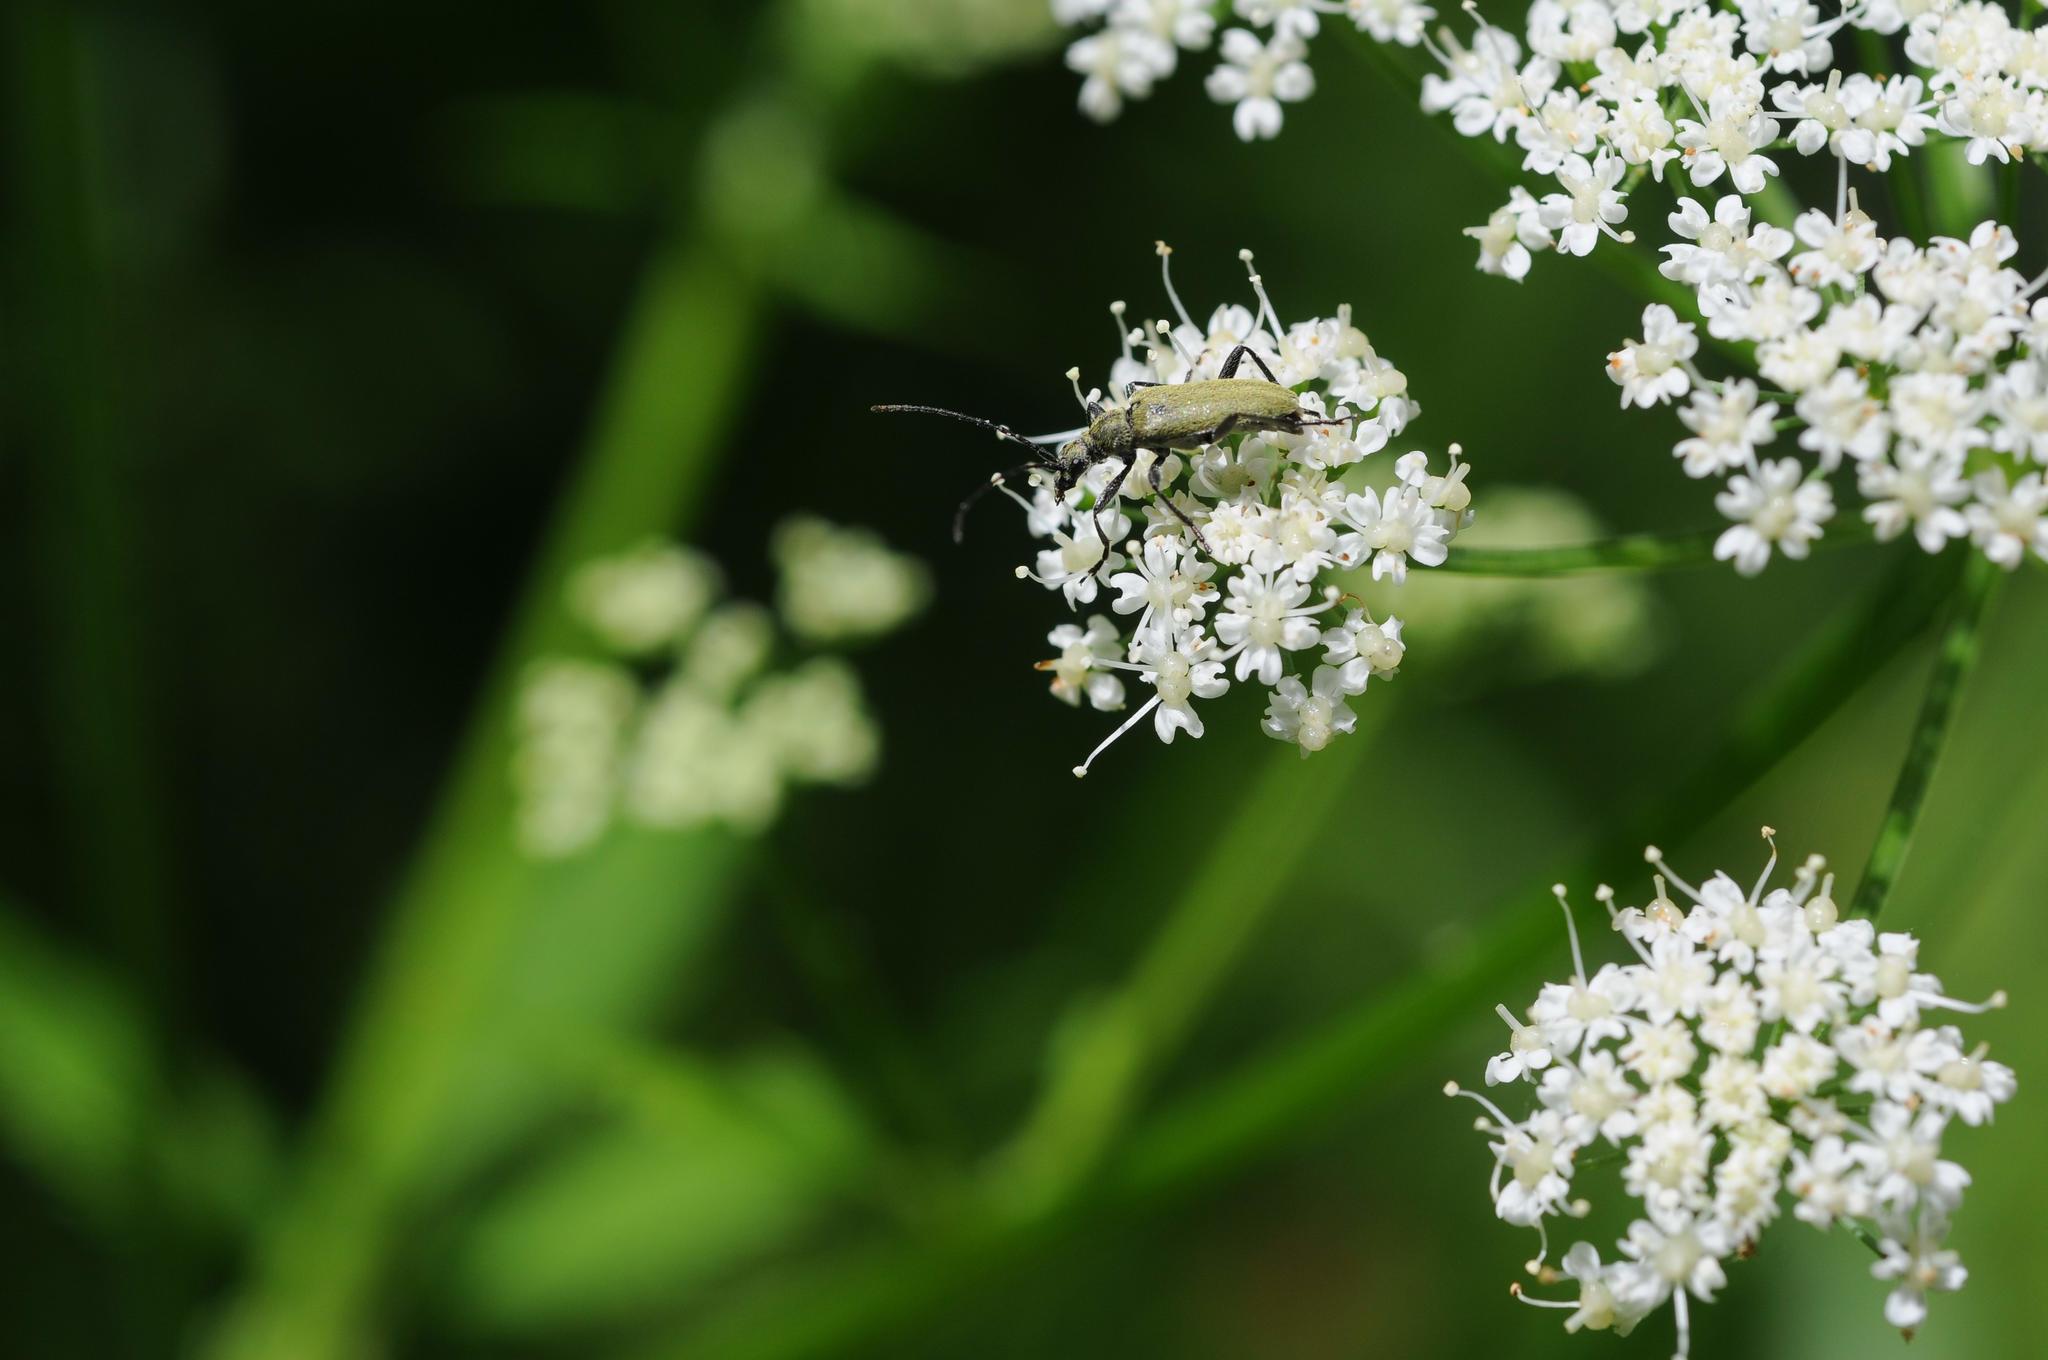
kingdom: Animalia
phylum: Arthropoda
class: Insecta
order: Coleoptera
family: Cerambycidae
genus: Acmaeops
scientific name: Acmaeops angusticollis
